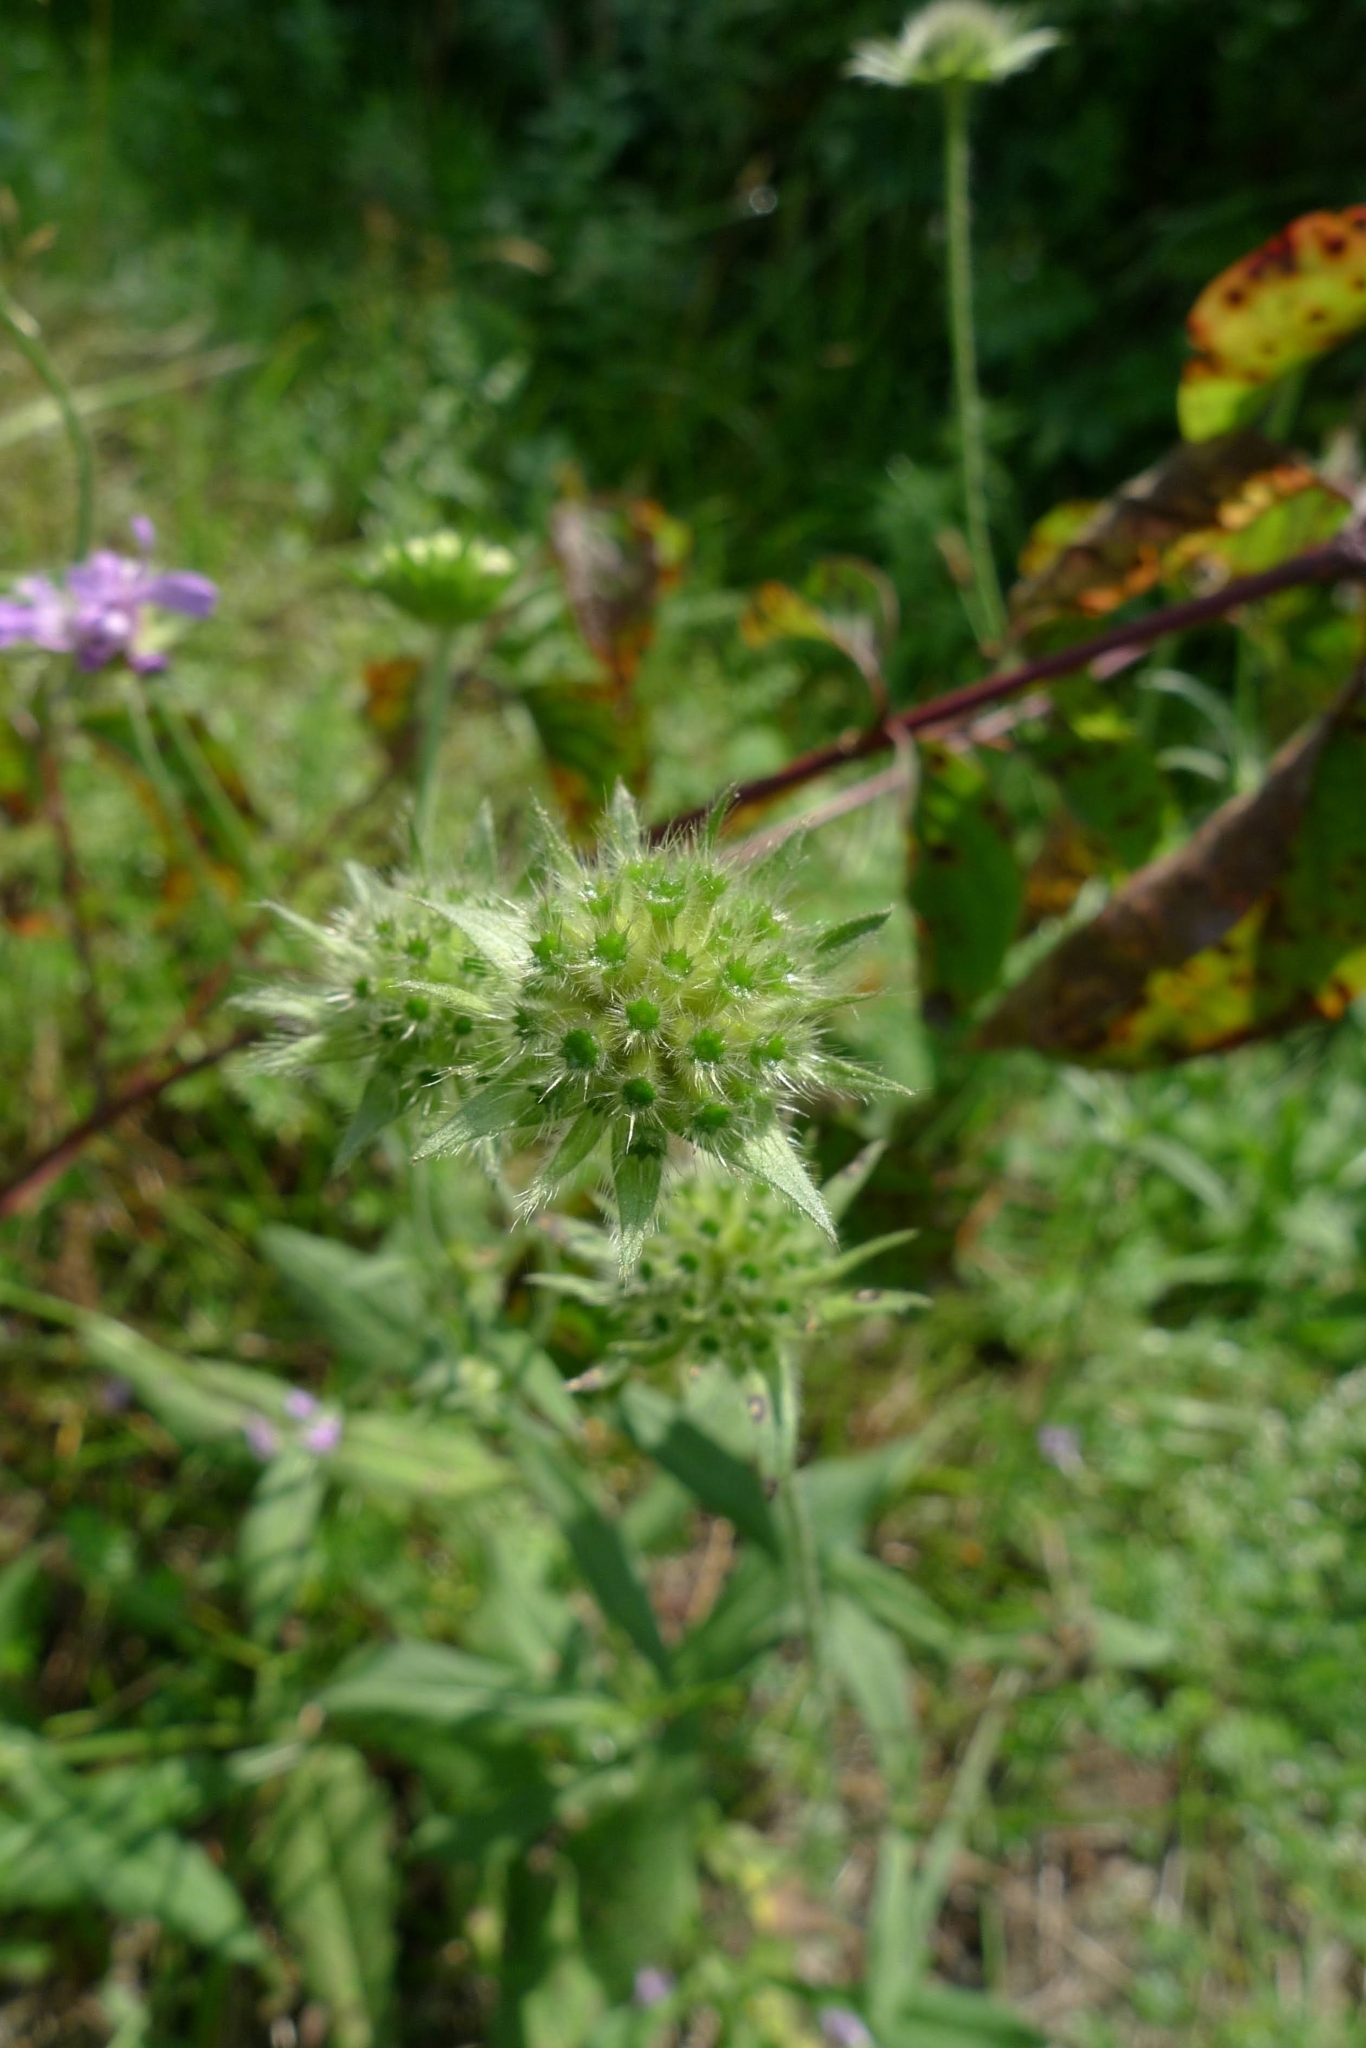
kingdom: Plantae
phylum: Tracheophyta
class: Magnoliopsida
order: Dipsacales
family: Caprifoliaceae
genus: Knautia
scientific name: Knautia arvensis
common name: Field scabiosa
